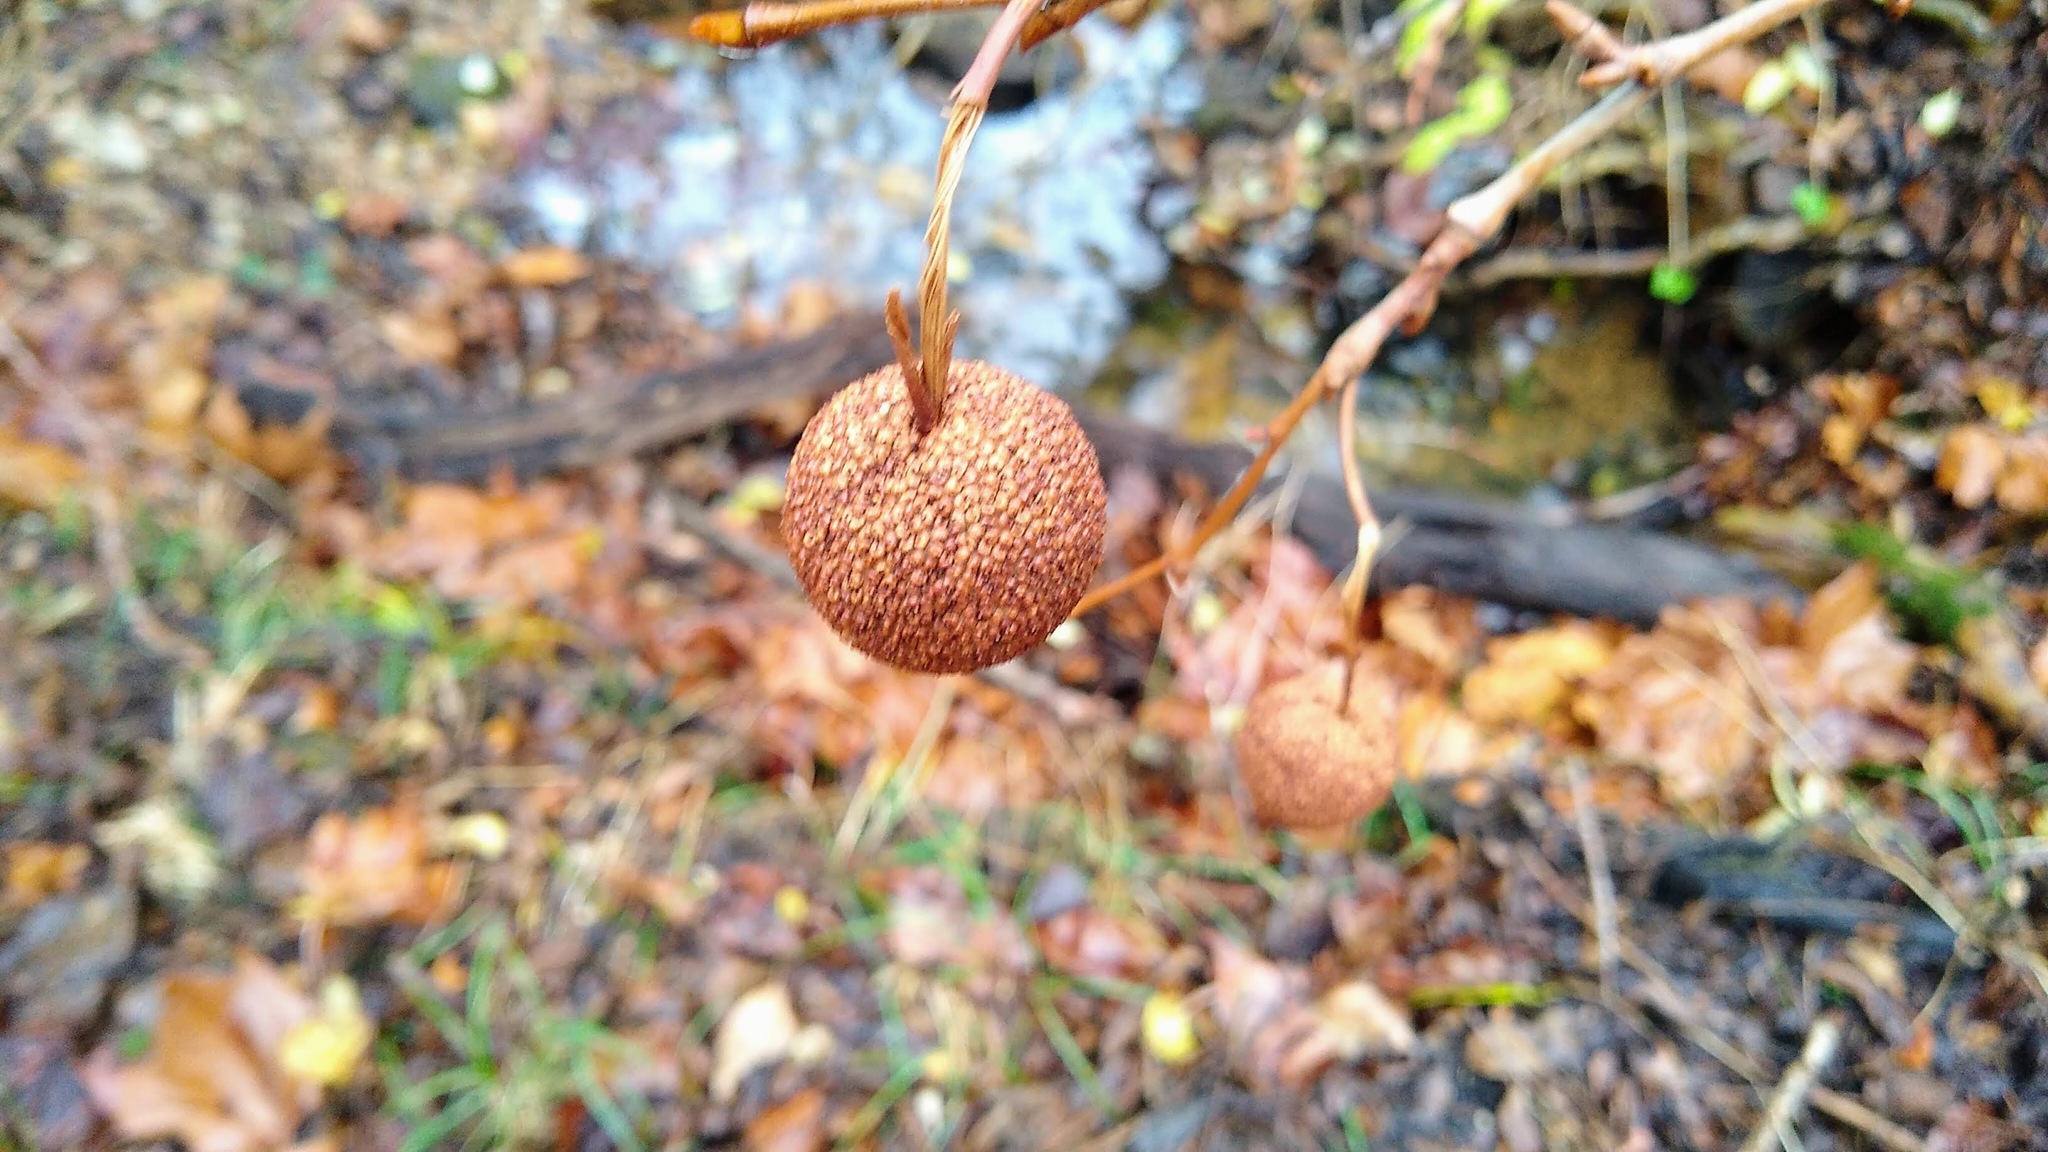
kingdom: Plantae
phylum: Tracheophyta
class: Magnoliopsida
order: Proteales
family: Platanaceae
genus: Platanus
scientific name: Platanus occidentalis
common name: American sycamore
